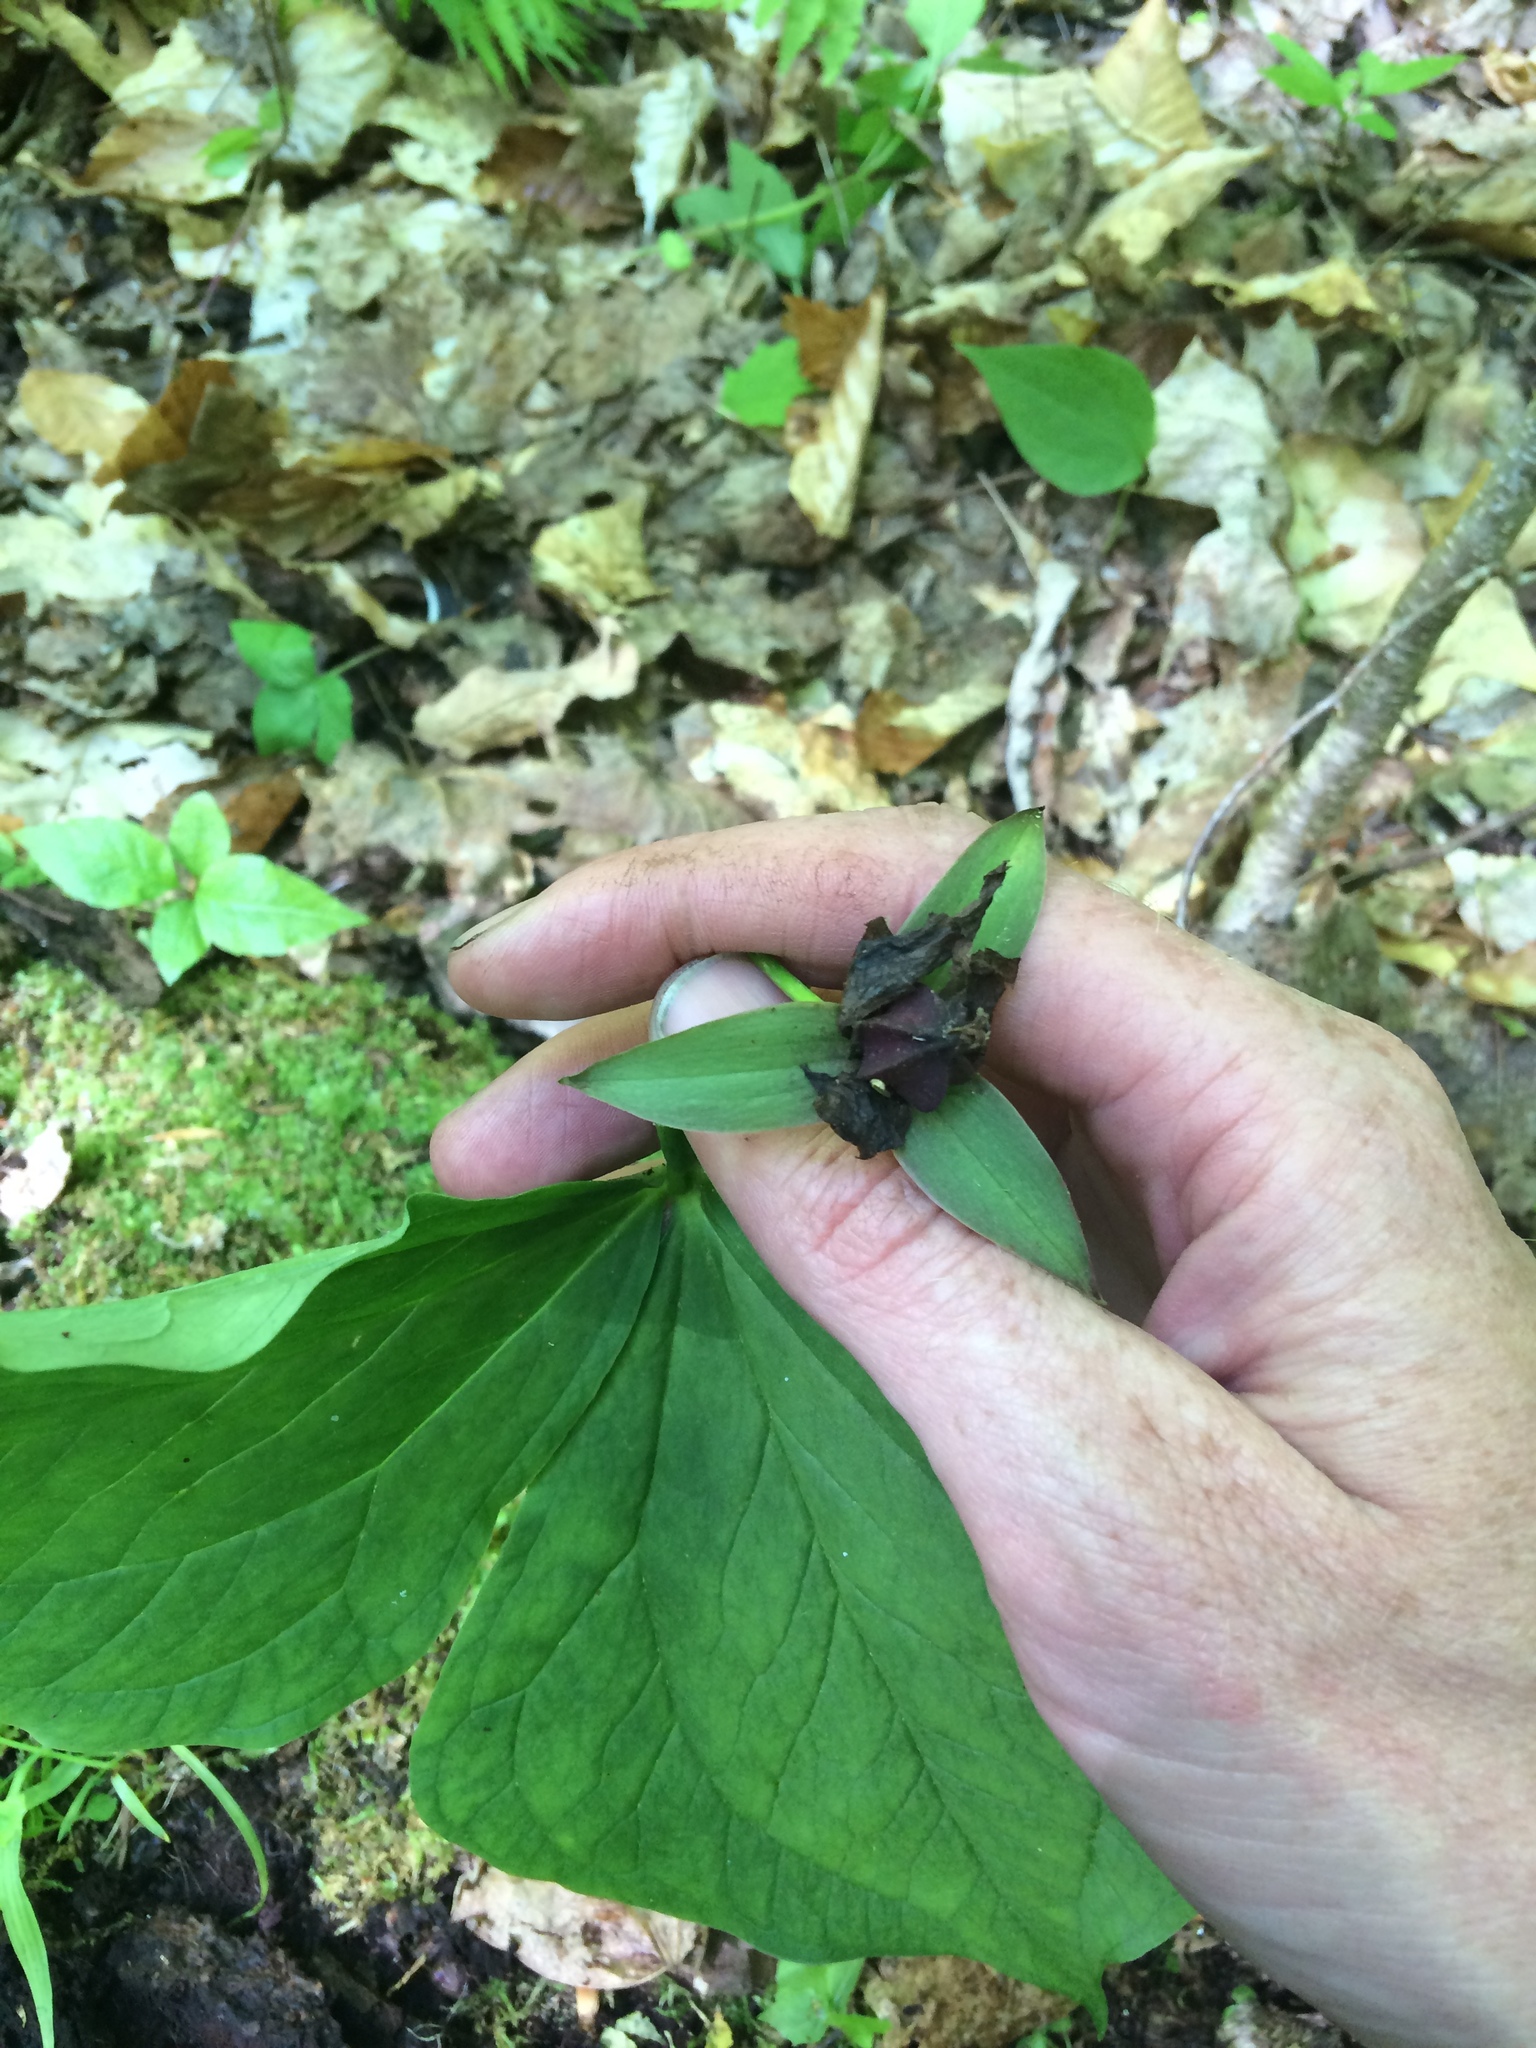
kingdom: Plantae
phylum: Tracheophyta
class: Liliopsida
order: Liliales
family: Melanthiaceae
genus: Trillium
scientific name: Trillium erectum
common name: Purple trillium
